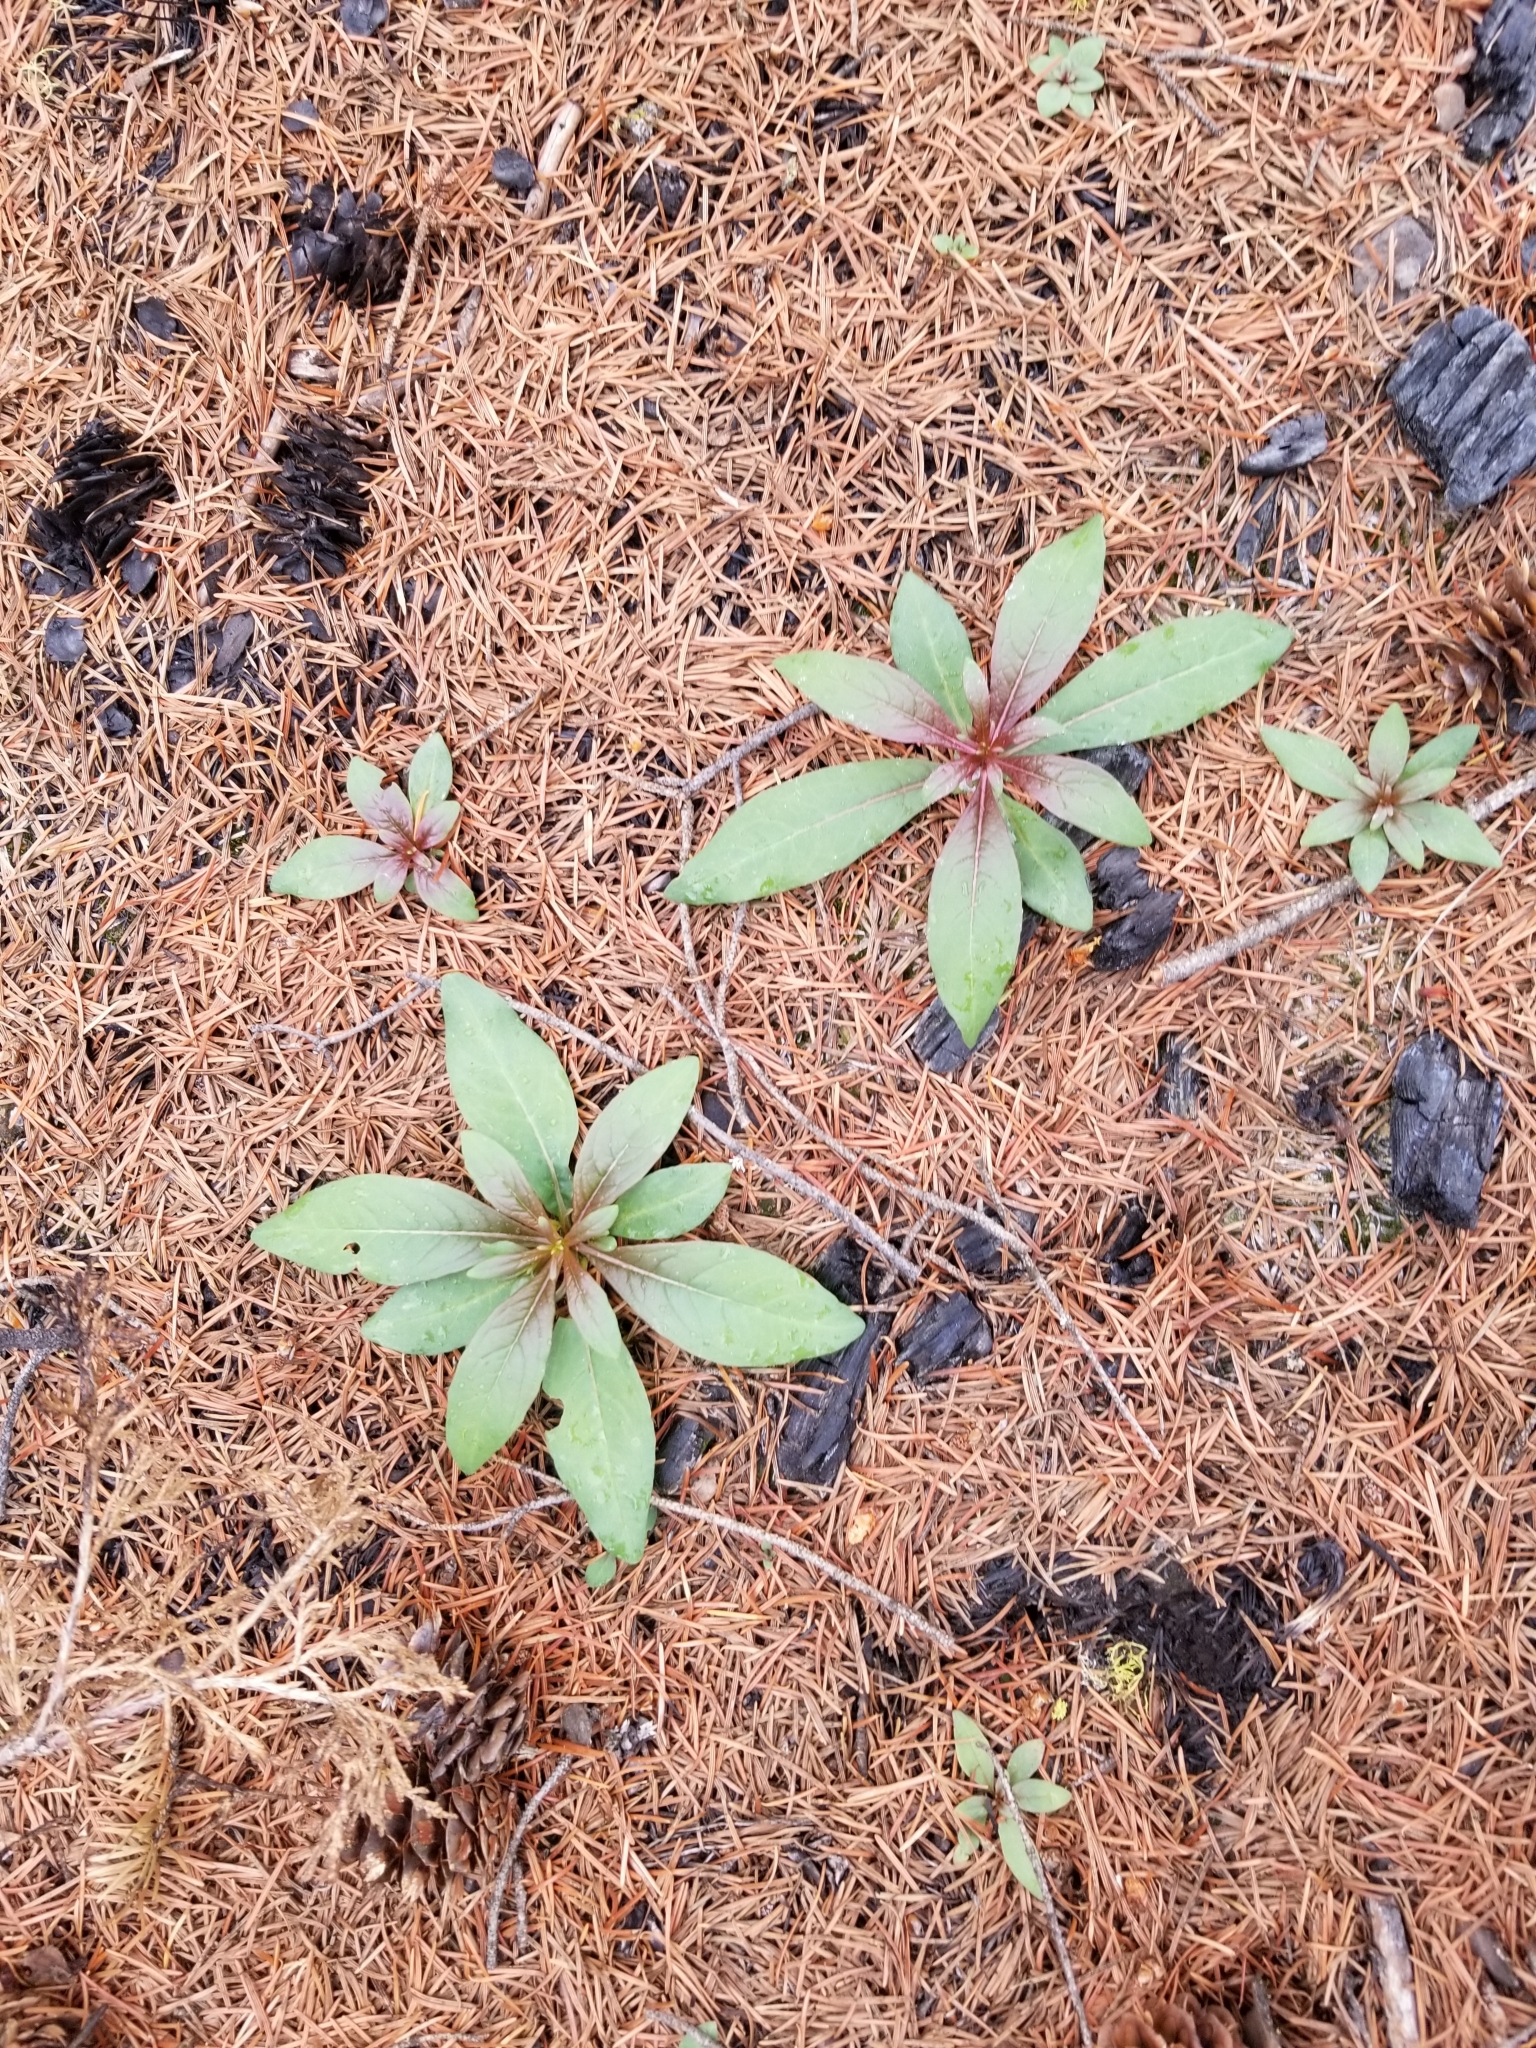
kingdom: Plantae
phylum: Tracheophyta
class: Magnoliopsida
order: Myrtales
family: Onagraceae
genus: Chamaenerion
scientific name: Chamaenerion angustifolium
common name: Fireweed
